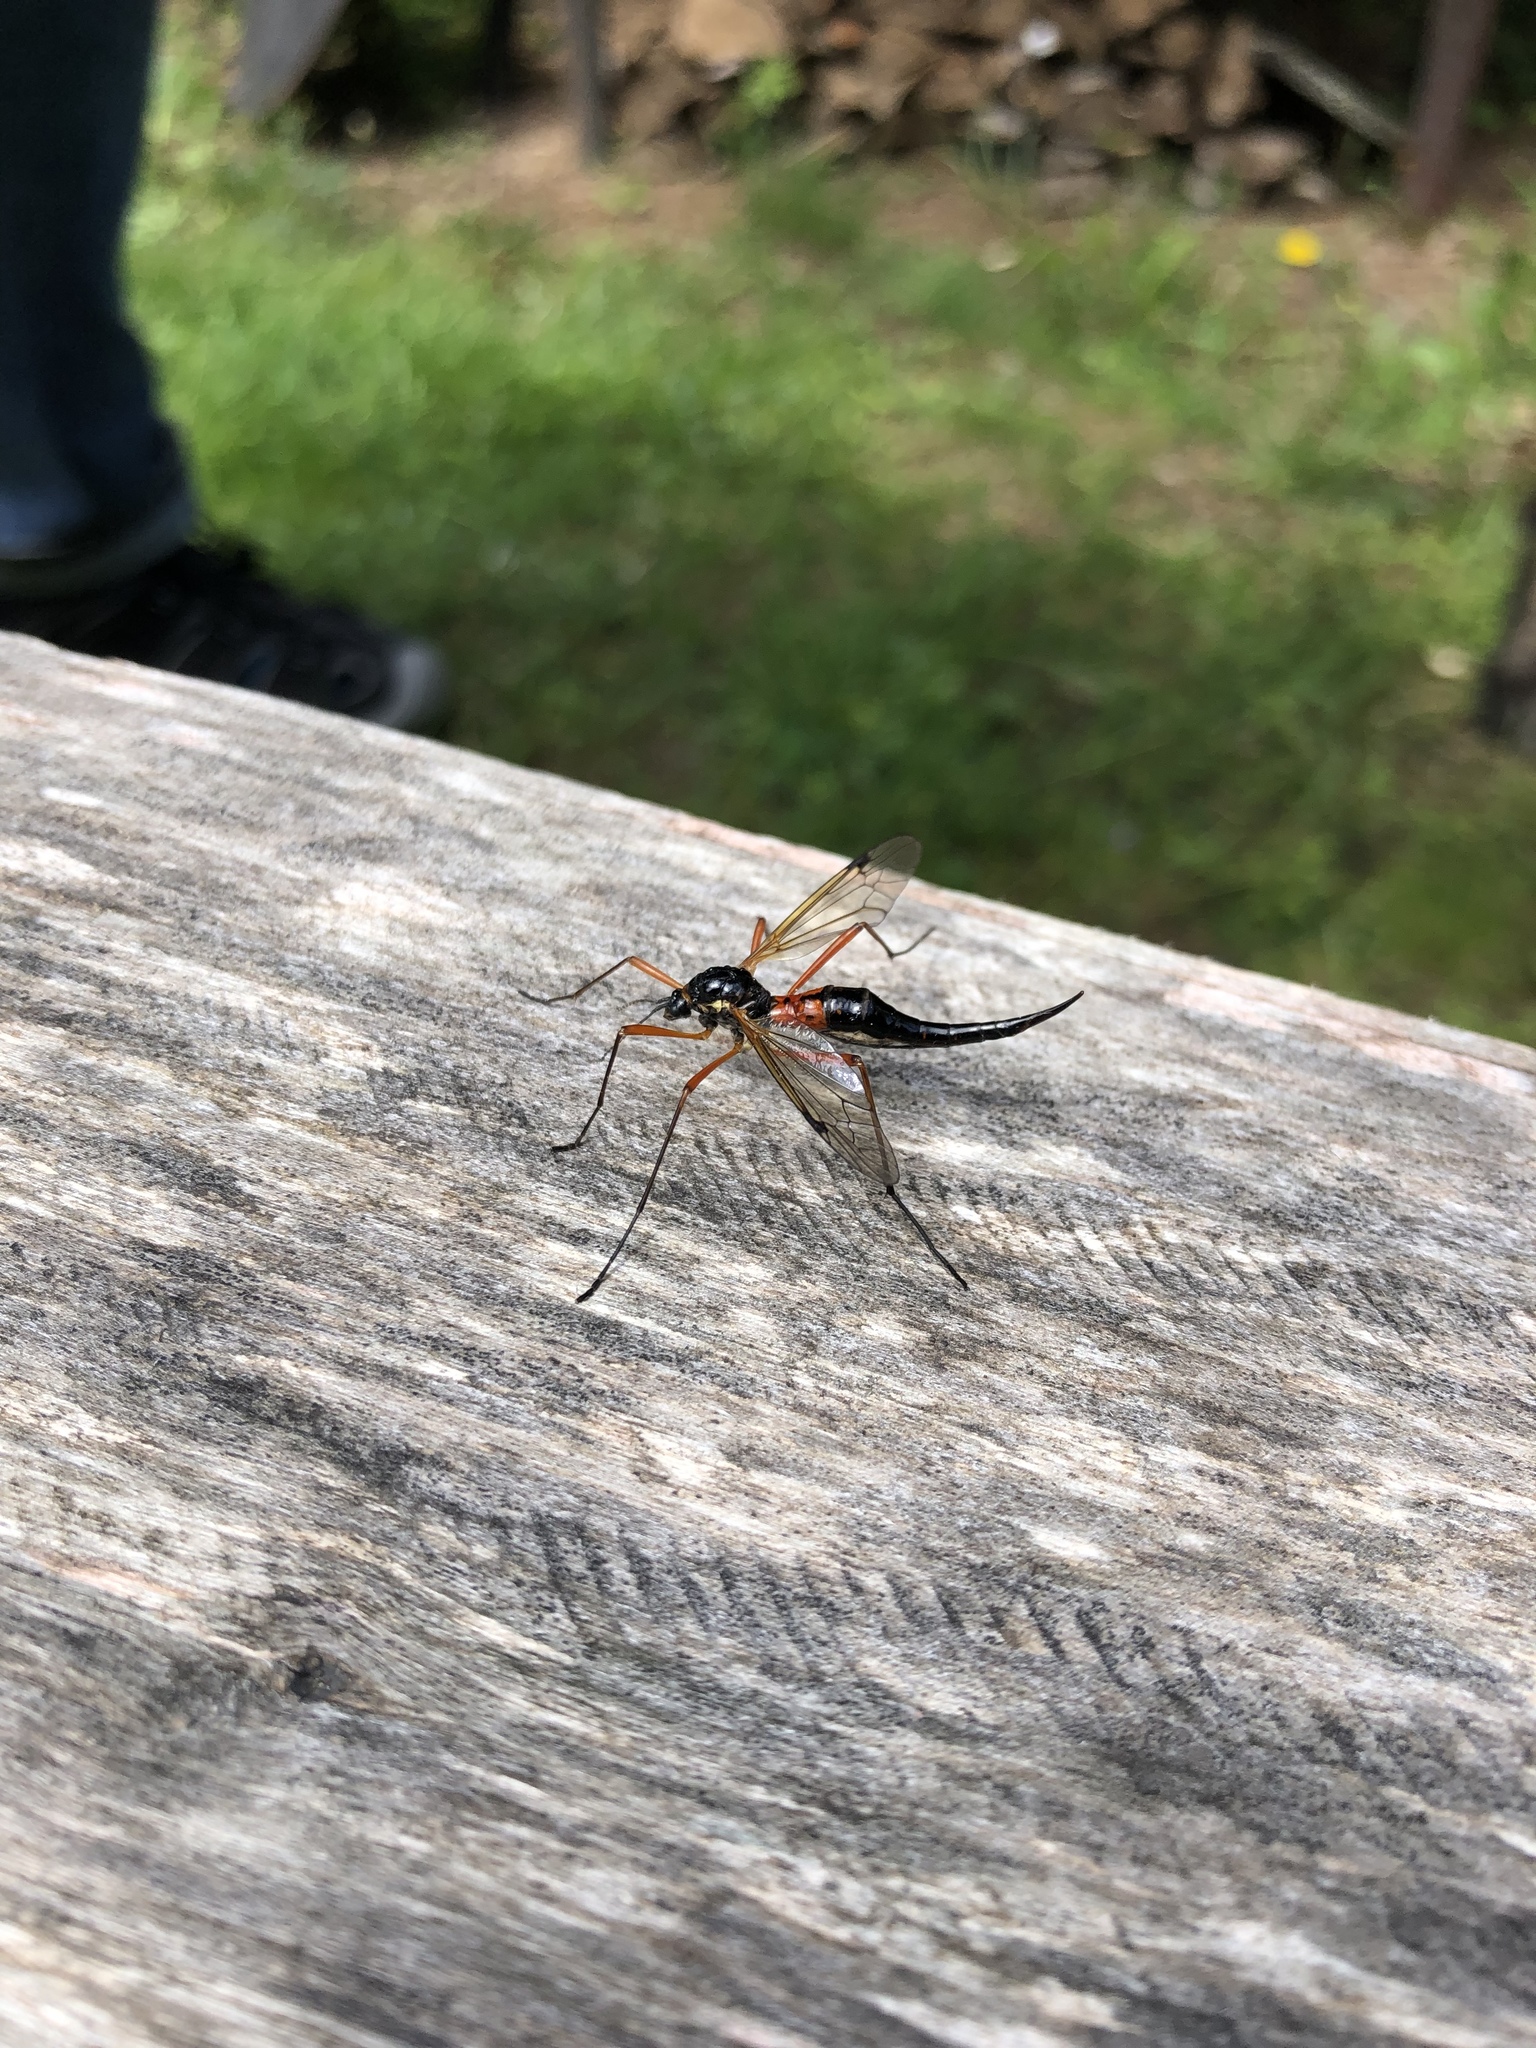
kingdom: Animalia
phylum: Arthropoda
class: Insecta
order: Diptera
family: Tipulidae
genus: Tanyptera
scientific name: Tanyptera atrata
